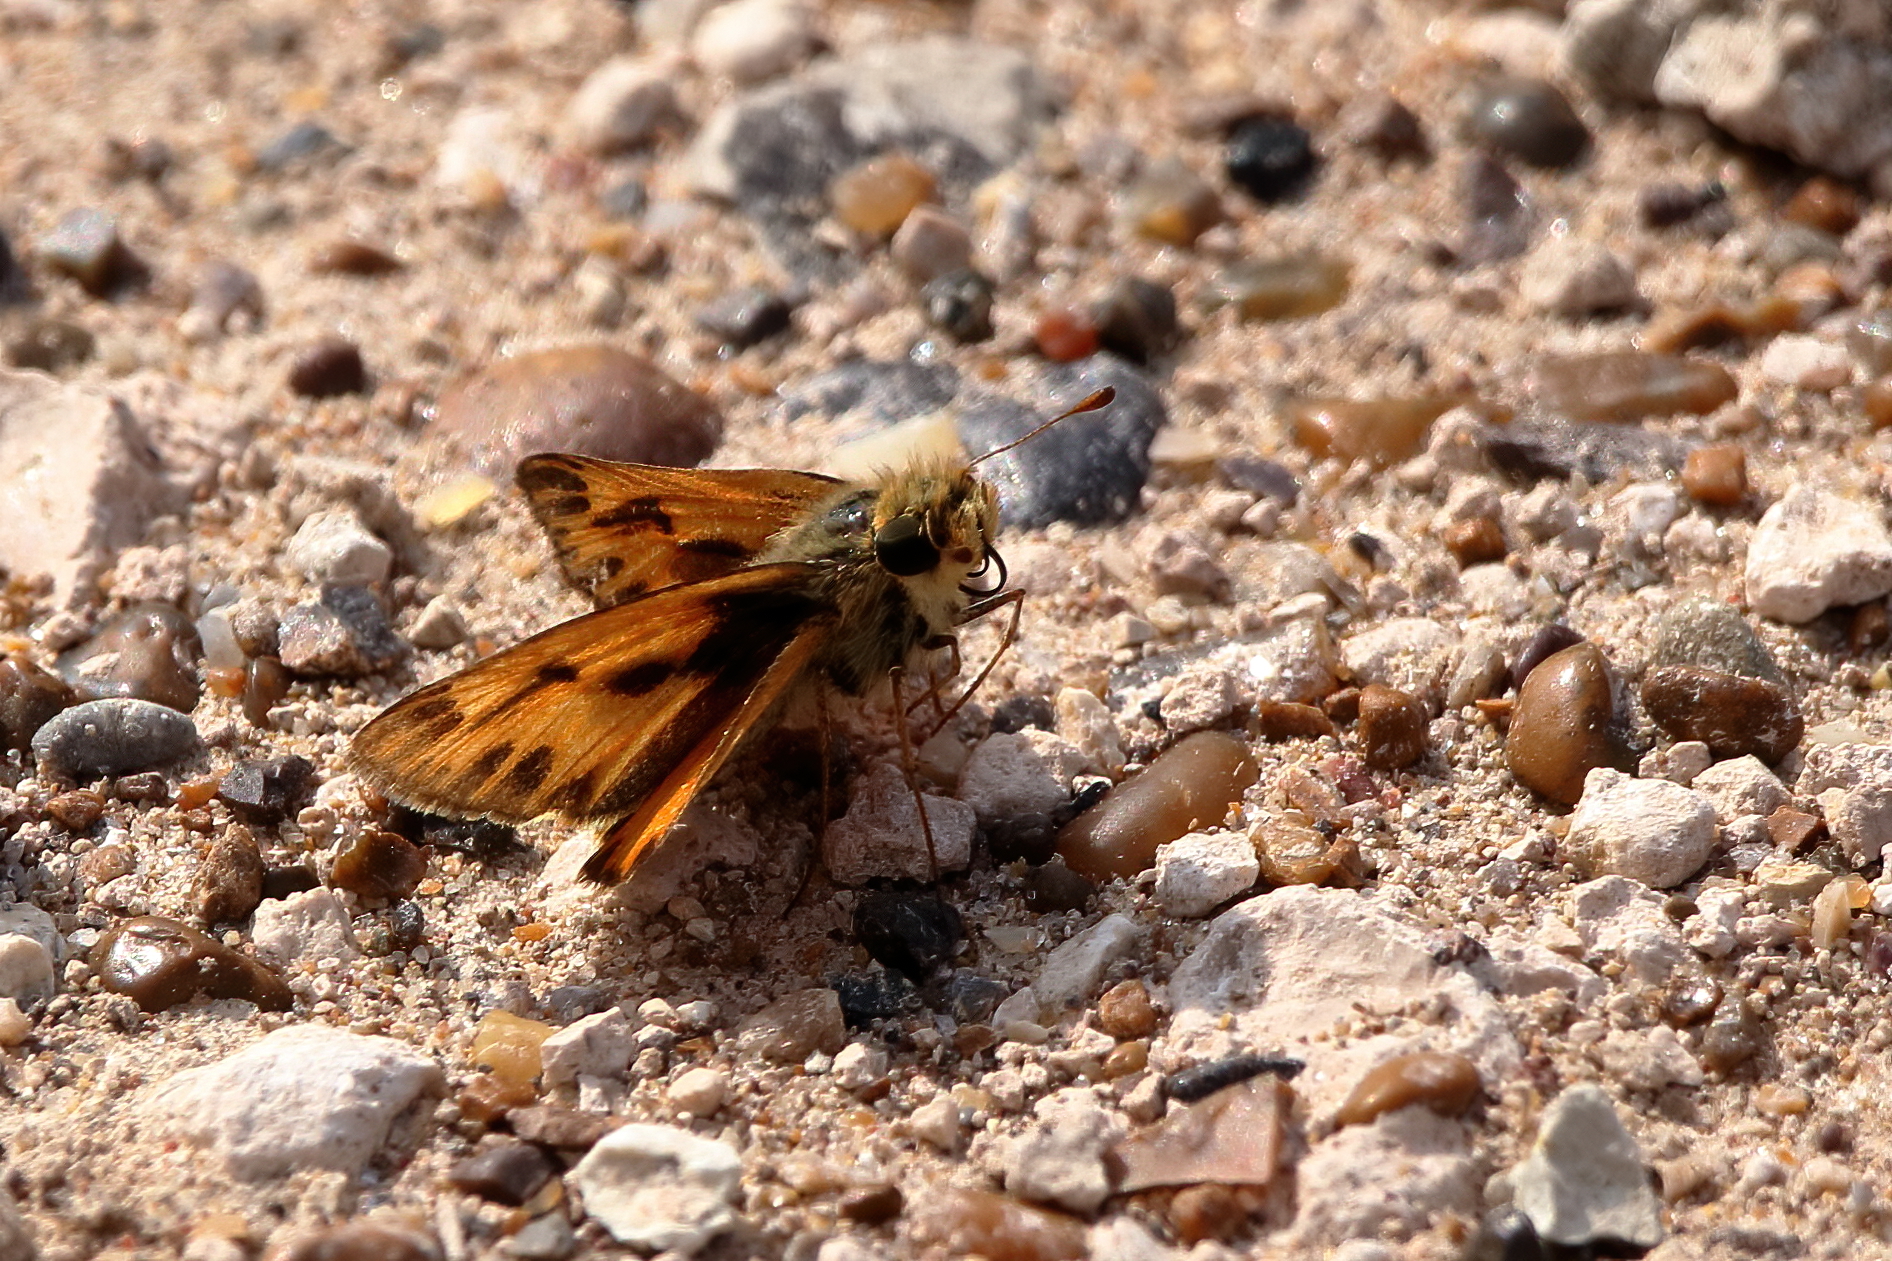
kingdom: Animalia
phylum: Arthropoda
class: Insecta
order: Lepidoptera
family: Hesperiidae
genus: Hylephila
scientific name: Hylephila phyleus
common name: Fiery skipper
